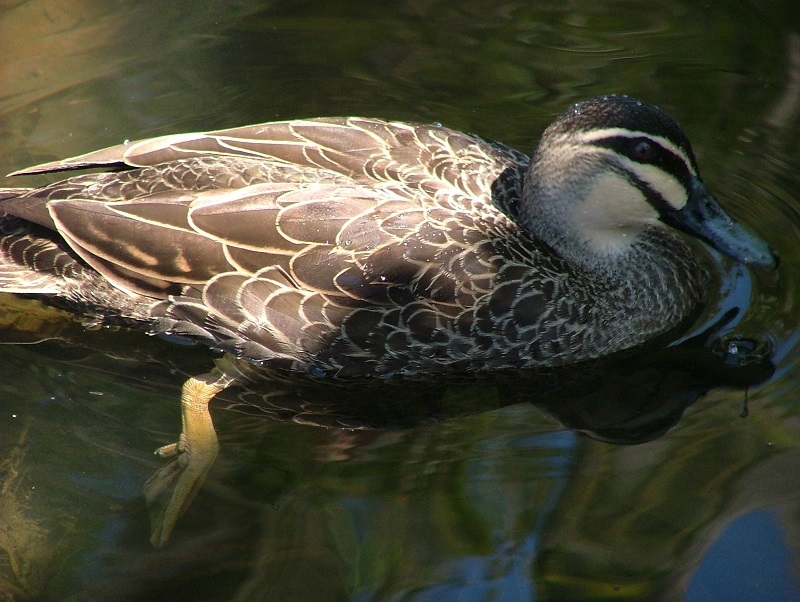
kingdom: Animalia
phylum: Chordata
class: Aves
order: Anseriformes
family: Anatidae
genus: Anas
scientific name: Anas superciliosa
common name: Pacific black duck
